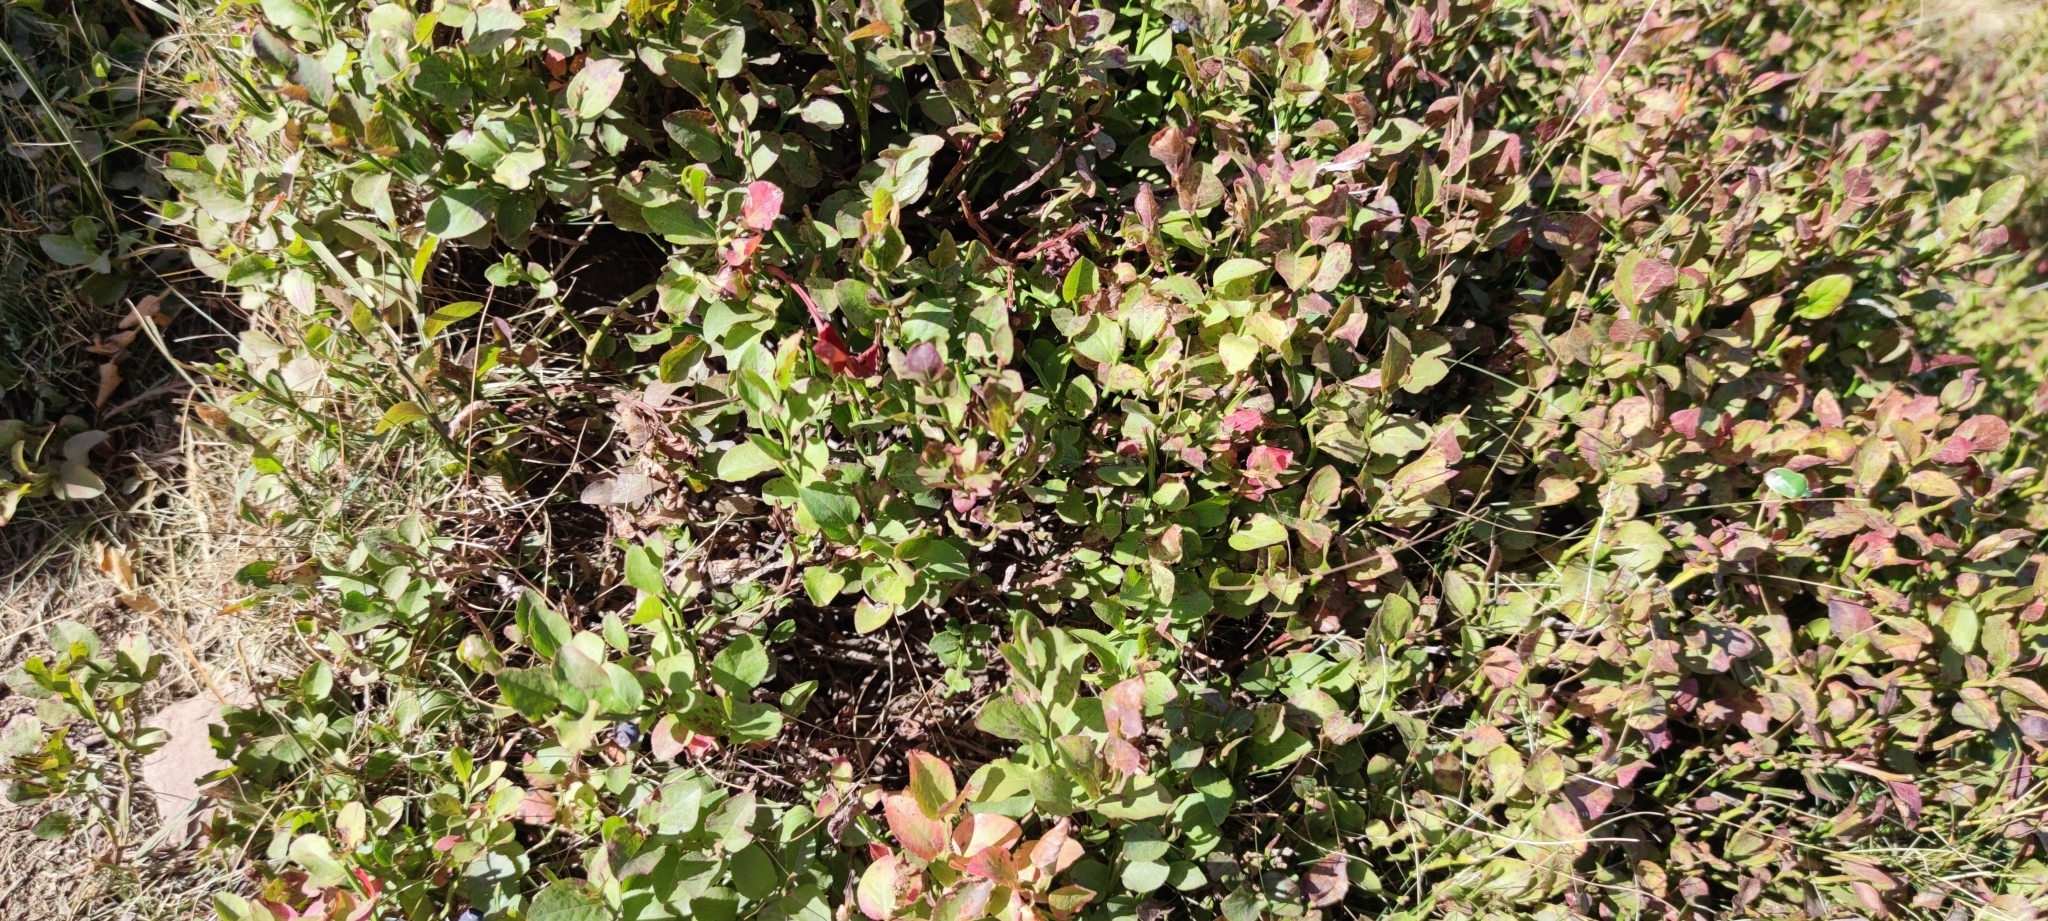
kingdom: Plantae
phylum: Tracheophyta
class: Magnoliopsida
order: Ericales
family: Ericaceae
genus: Vaccinium
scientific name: Vaccinium myrtillus
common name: Bilberry
